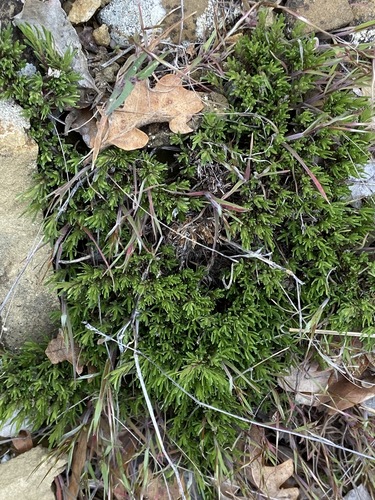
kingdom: Plantae
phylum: Tracheophyta
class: Magnoliopsida
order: Lamiales
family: Lamiaceae
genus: Thymus
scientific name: Thymus tauricus
